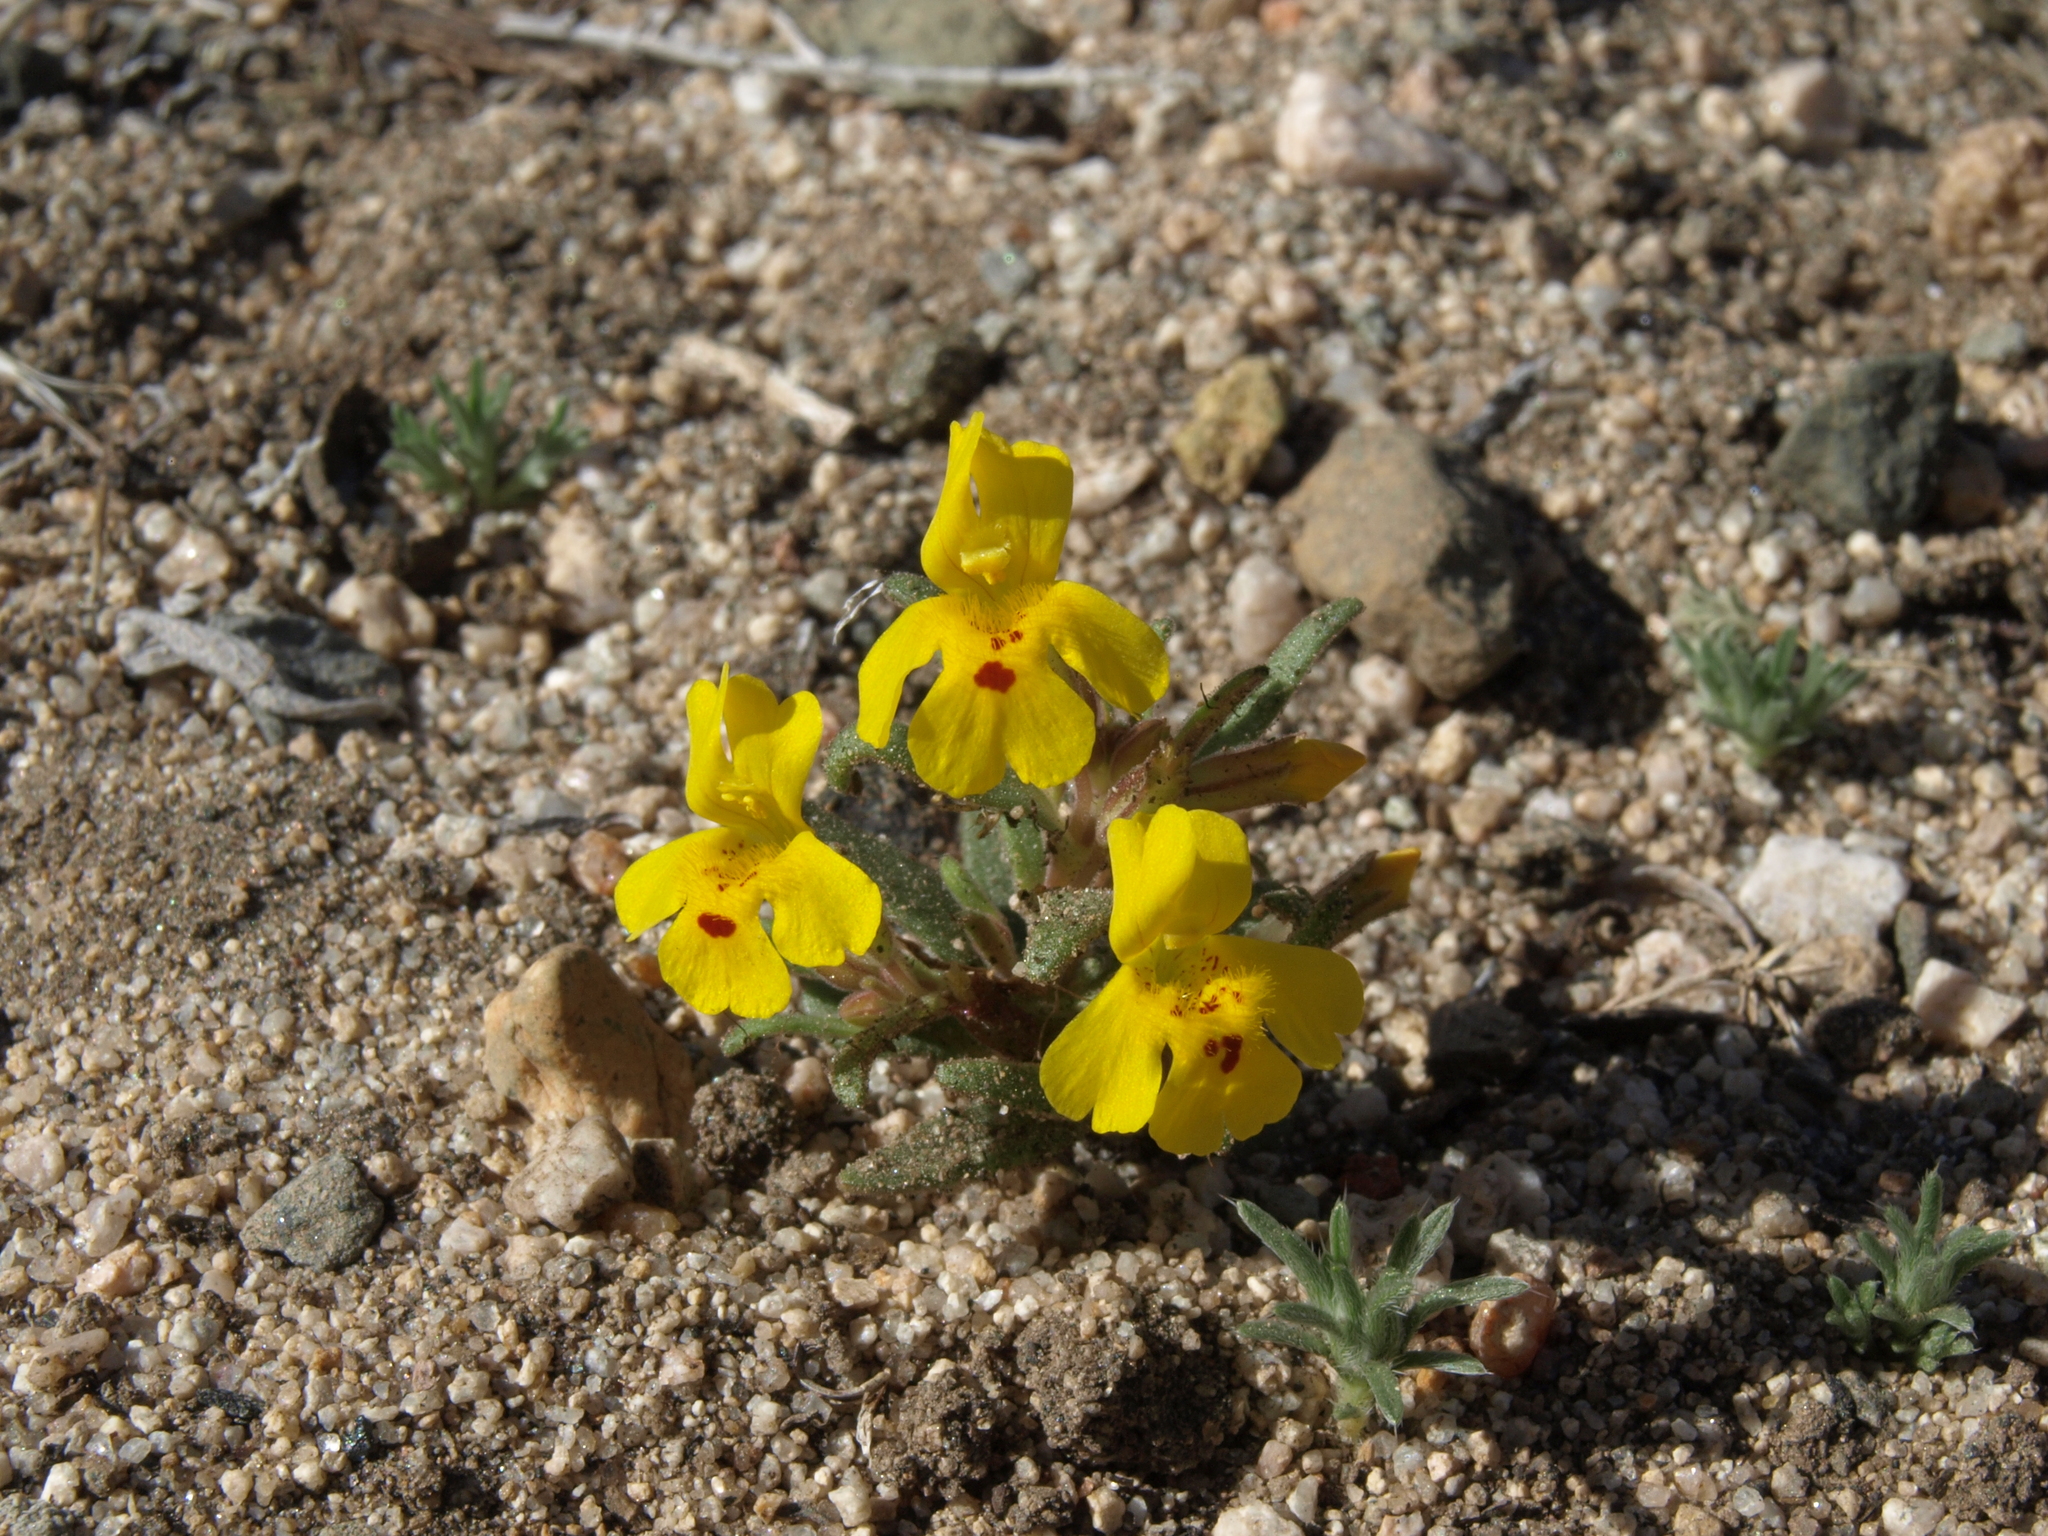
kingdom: Plantae
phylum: Tracheophyta
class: Magnoliopsida
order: Lamiales
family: Phrymaceae
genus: Erythranthe
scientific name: Erythranthe carsonensis
